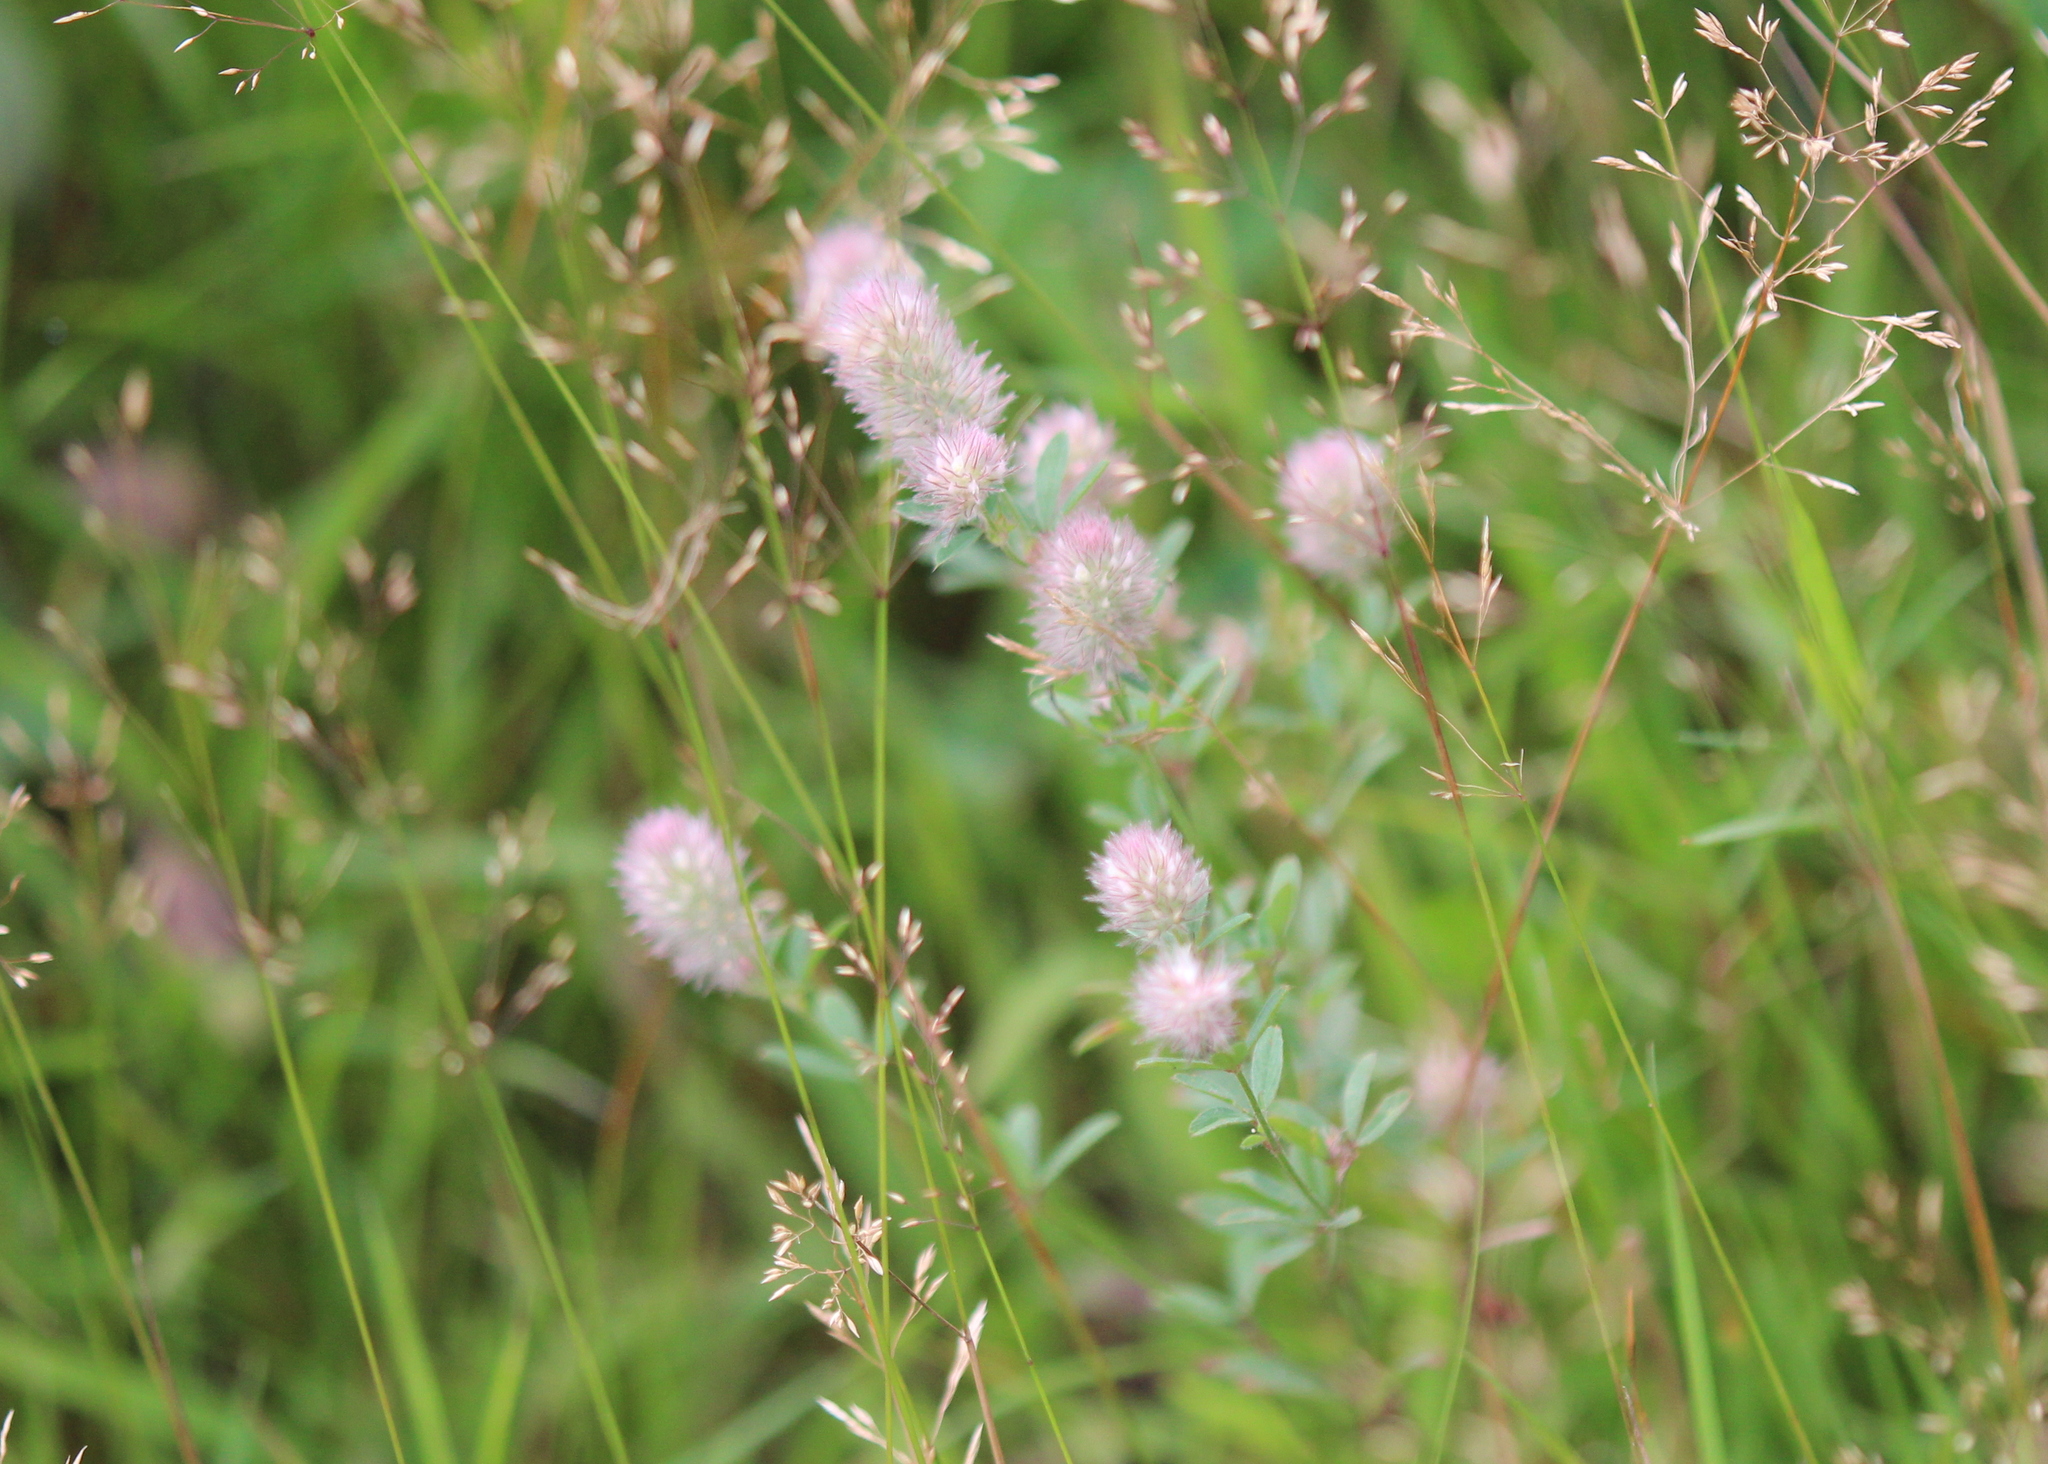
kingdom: Plantae
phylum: Tracheophyta
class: Magnoliopsida
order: Fabales
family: Fabaceae
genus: Trifolium
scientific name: Trifolium arvense
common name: Hare's-foot clover
